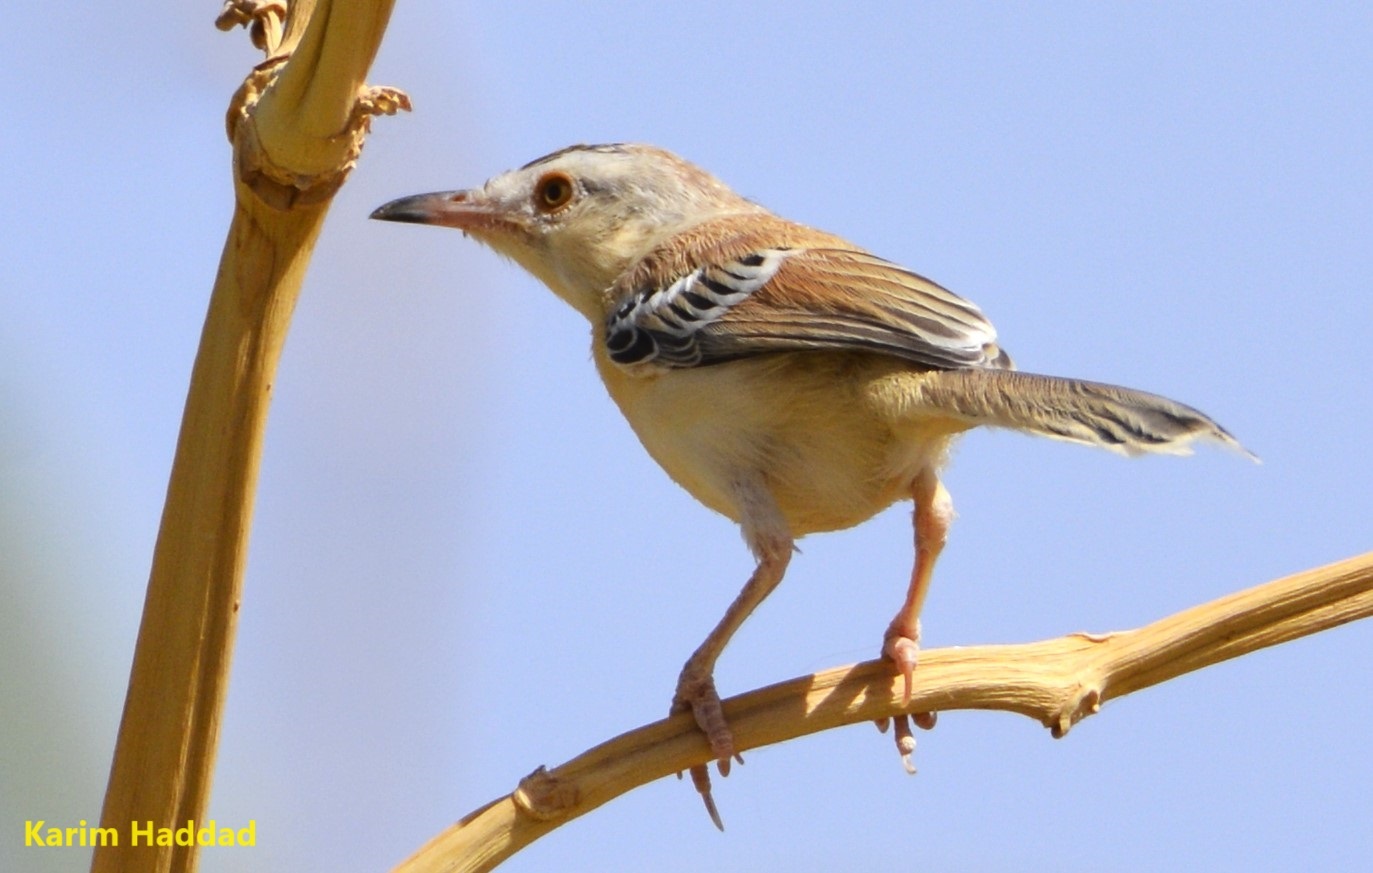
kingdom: Animalia
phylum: Chordata
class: Aves
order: Passeriformes
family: Cisticolidae
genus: Spiloptila
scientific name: Spiloptila clamans
